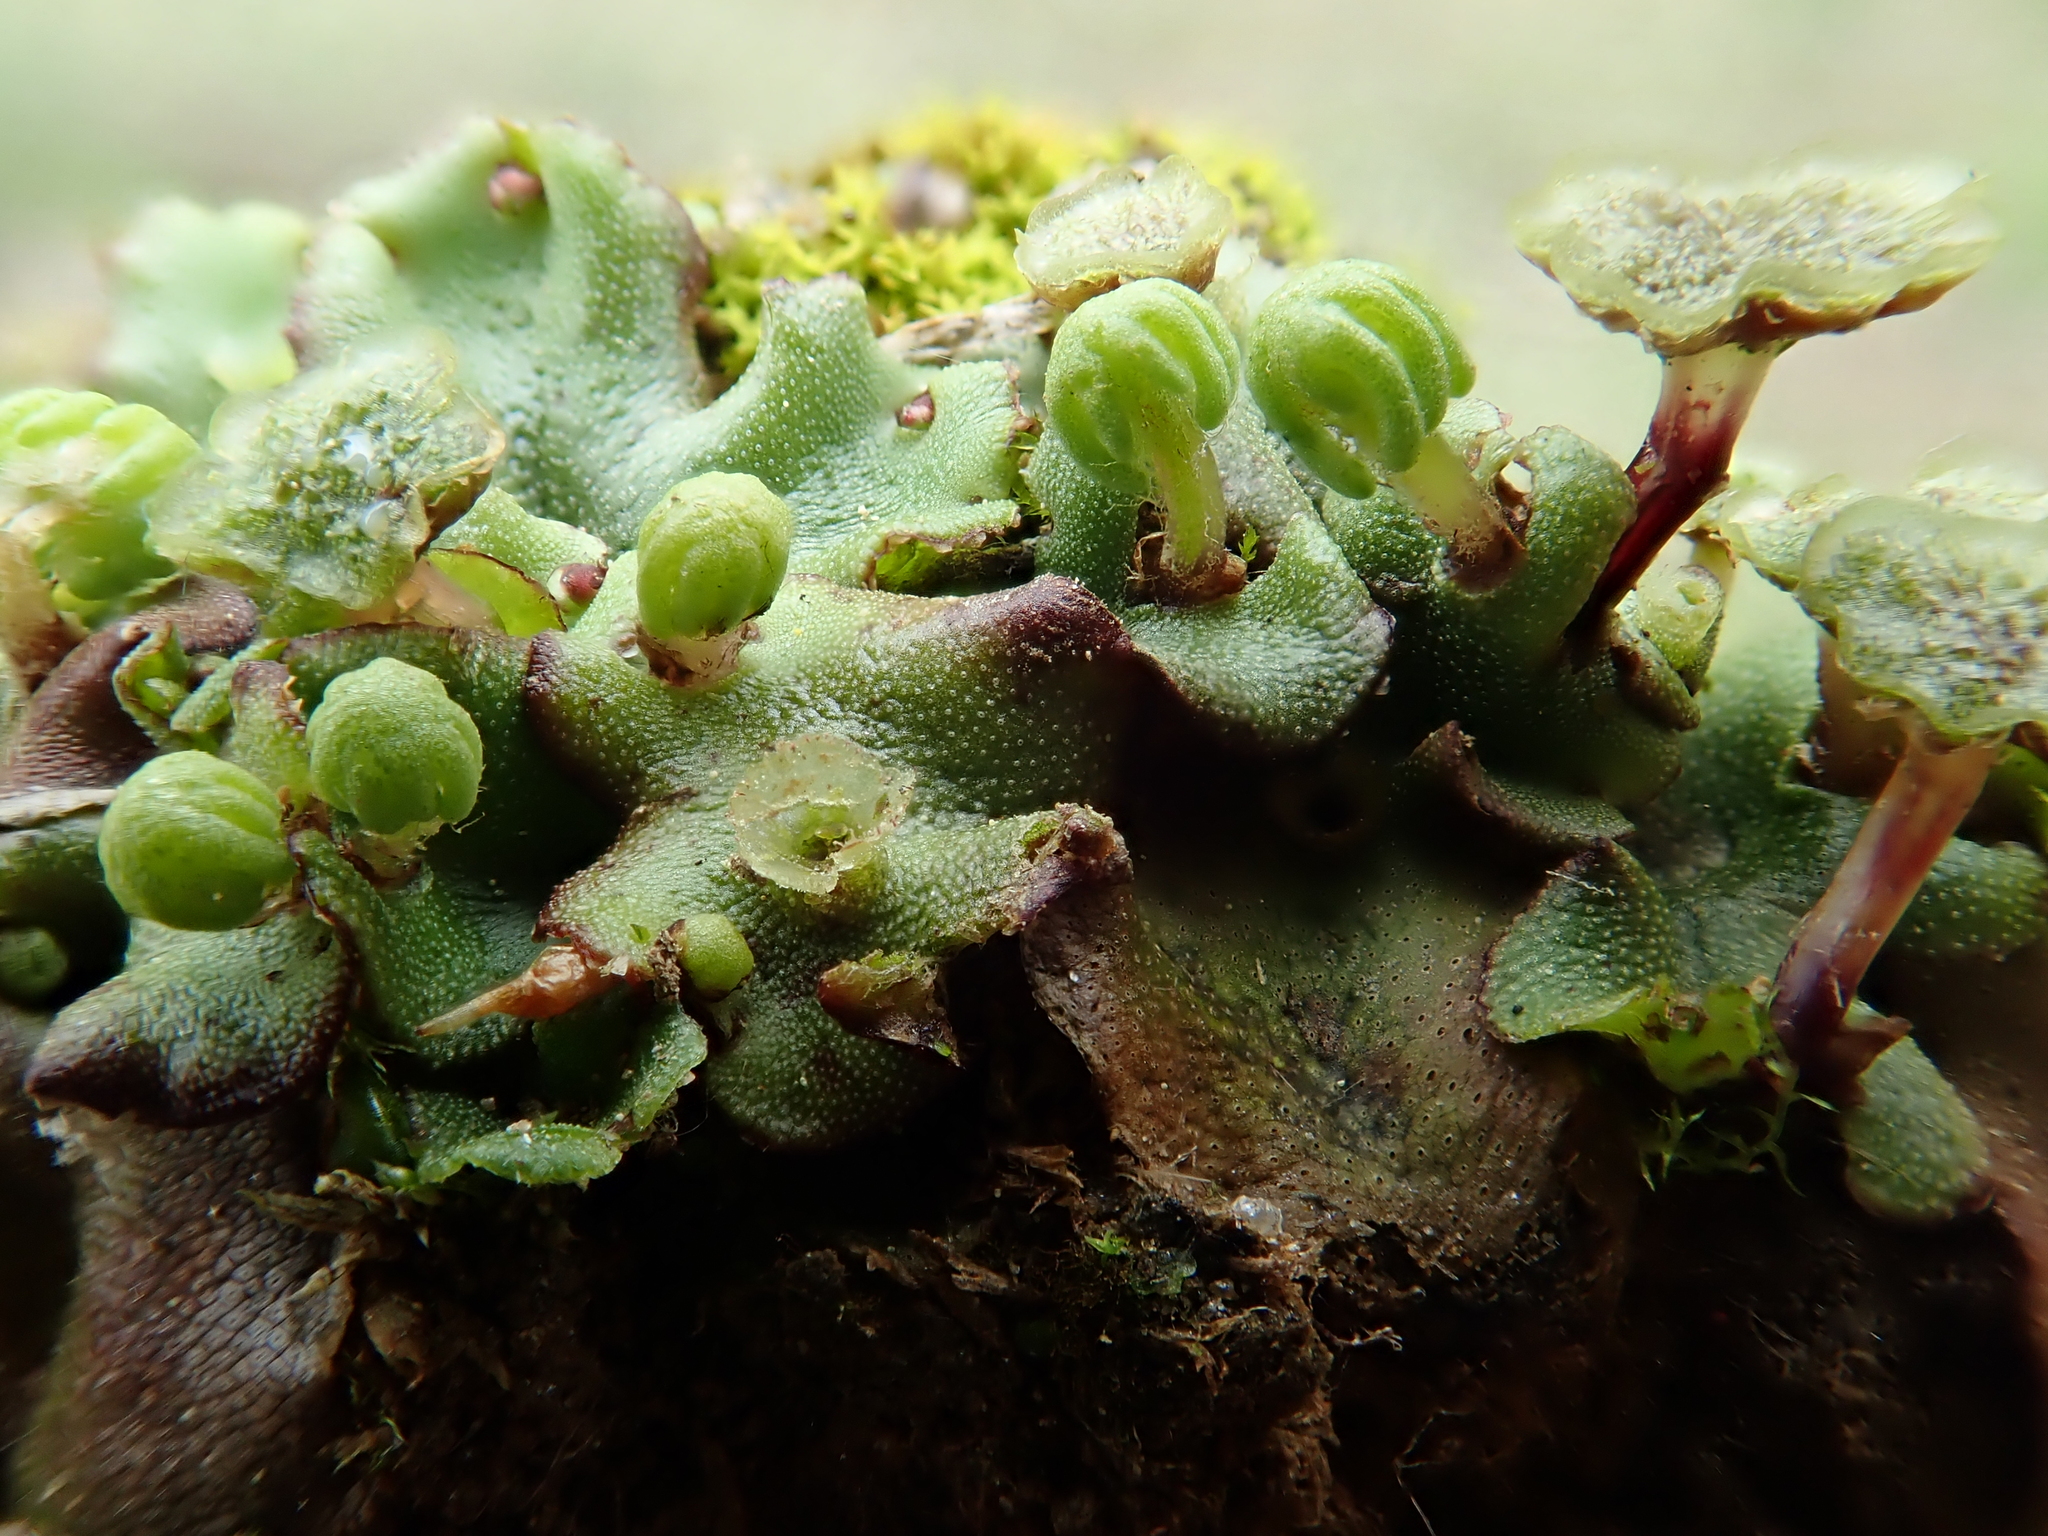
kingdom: Plantae
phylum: Marchantiophyta
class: Marchantiopsida
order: Marchantiales
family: Marchantiaceae
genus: Marchantia
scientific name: Marchantia polymorpha
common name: Common liverwort
